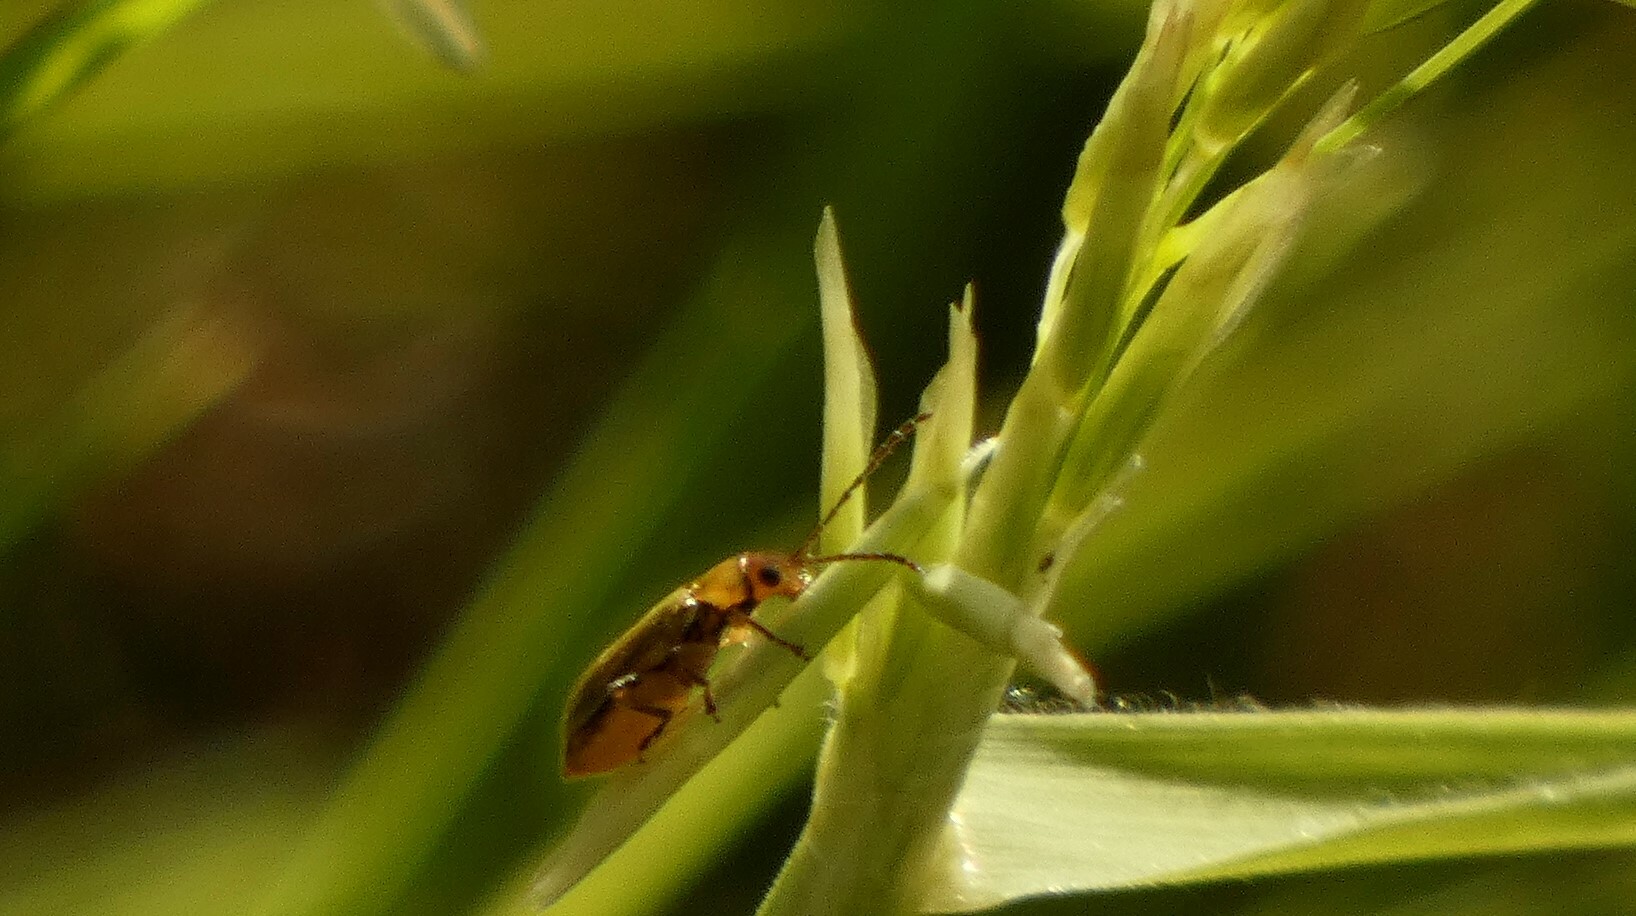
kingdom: Animalia
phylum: Arthropoda
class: Insecta
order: Coleoptera
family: Chrysomelidae
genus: Grammicopterus
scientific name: Grammicopterus
